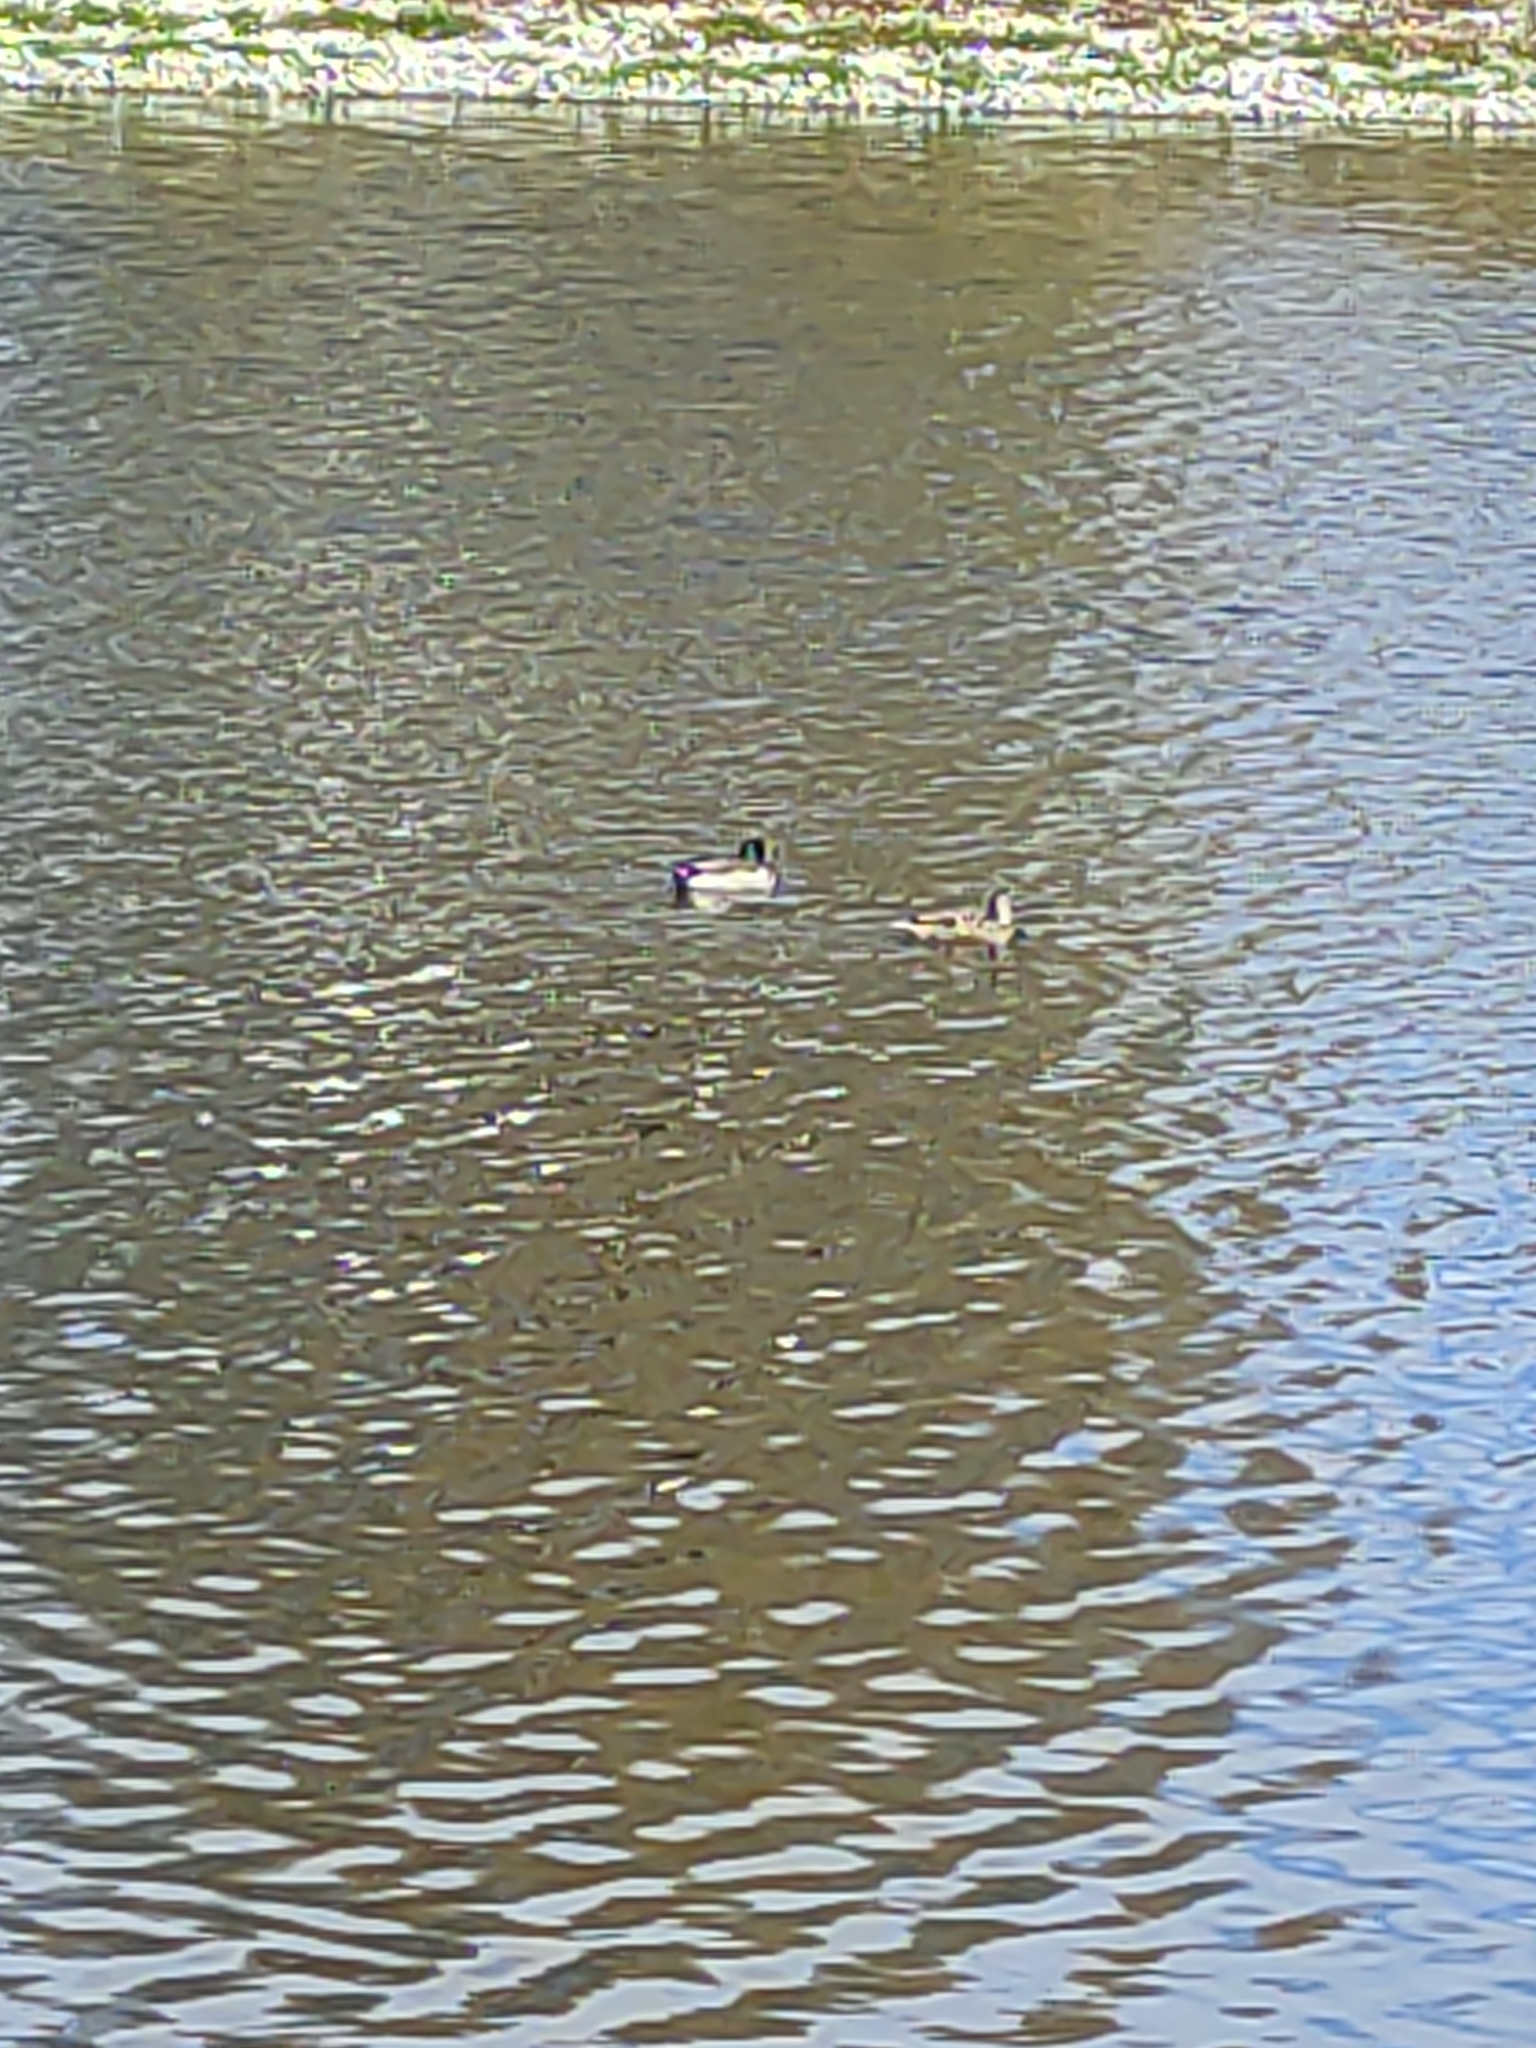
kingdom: Animalia
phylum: Chordata
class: Aves
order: Anseriformes
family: Anatidae
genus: Anas
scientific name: Anas platyrhynchos
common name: Mallard
